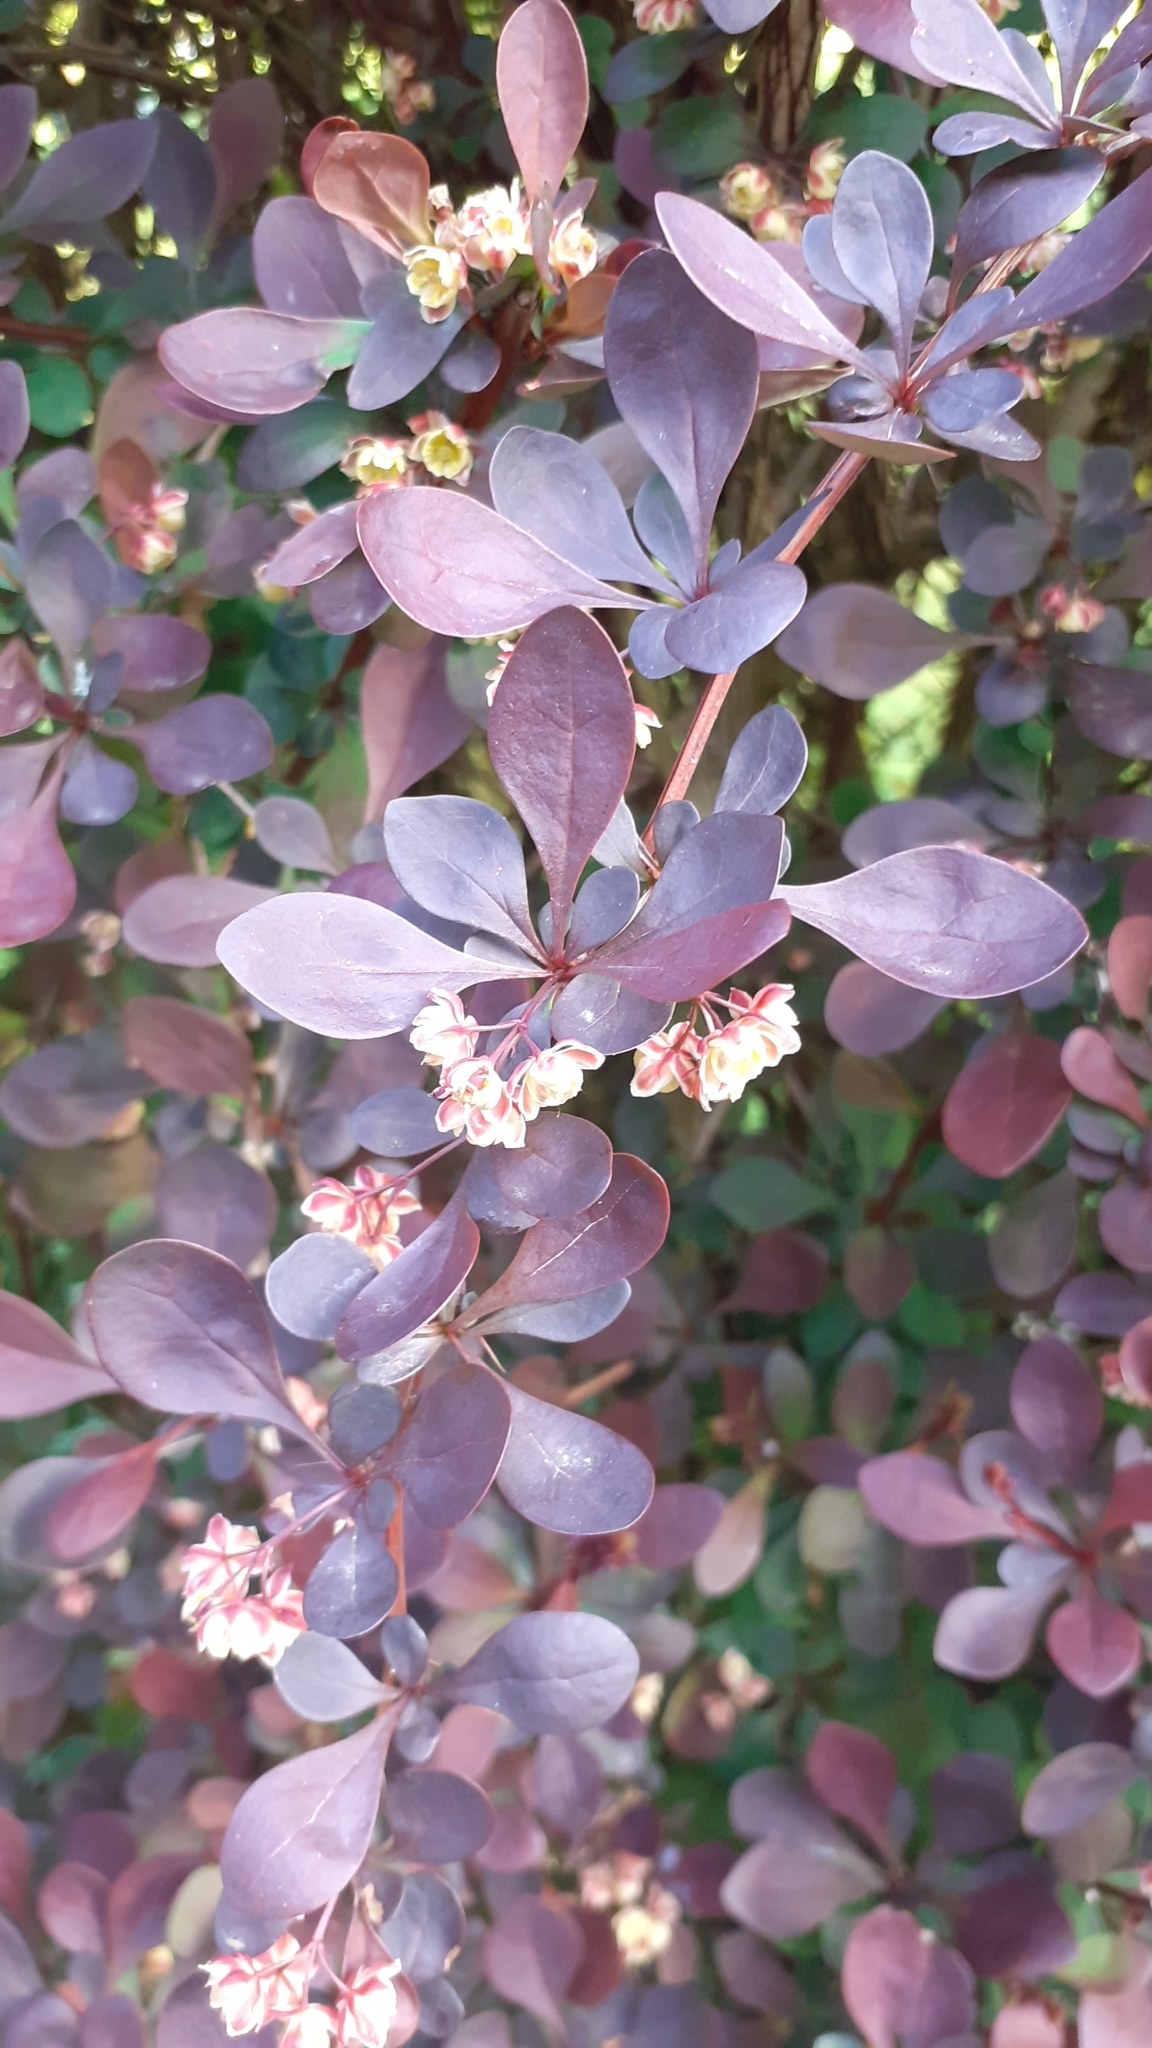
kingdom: Plantae
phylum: Tracheophyta
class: Magnoliopsida
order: Ranunculales
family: Berberidaceae
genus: Berberis
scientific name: Berberis thunbergii
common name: Japanese barberry
